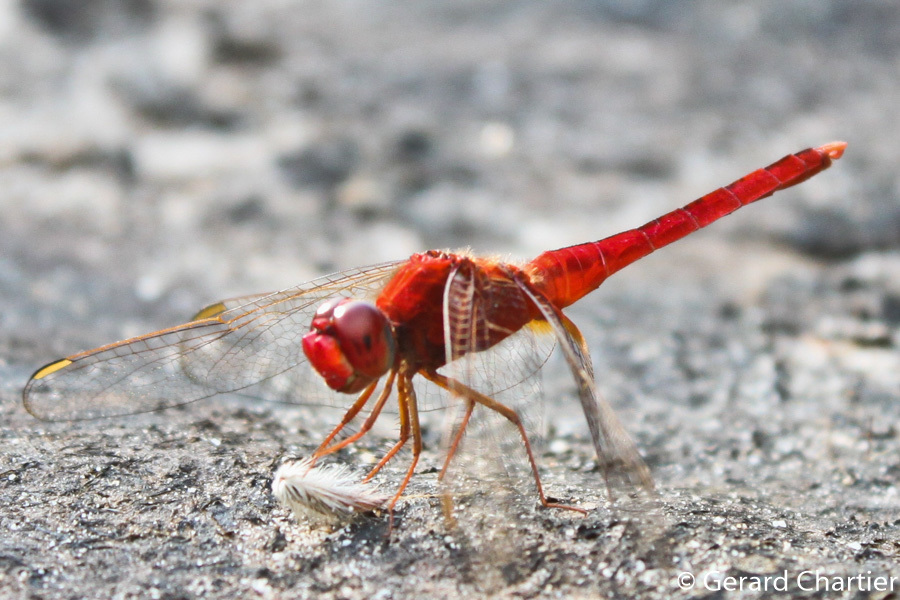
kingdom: Animalia
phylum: Arthropoda
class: Insecta
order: Odonata
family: Libellulidae
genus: Crocothemis
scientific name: Crocothemis servilia
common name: Scarlet skimmer
